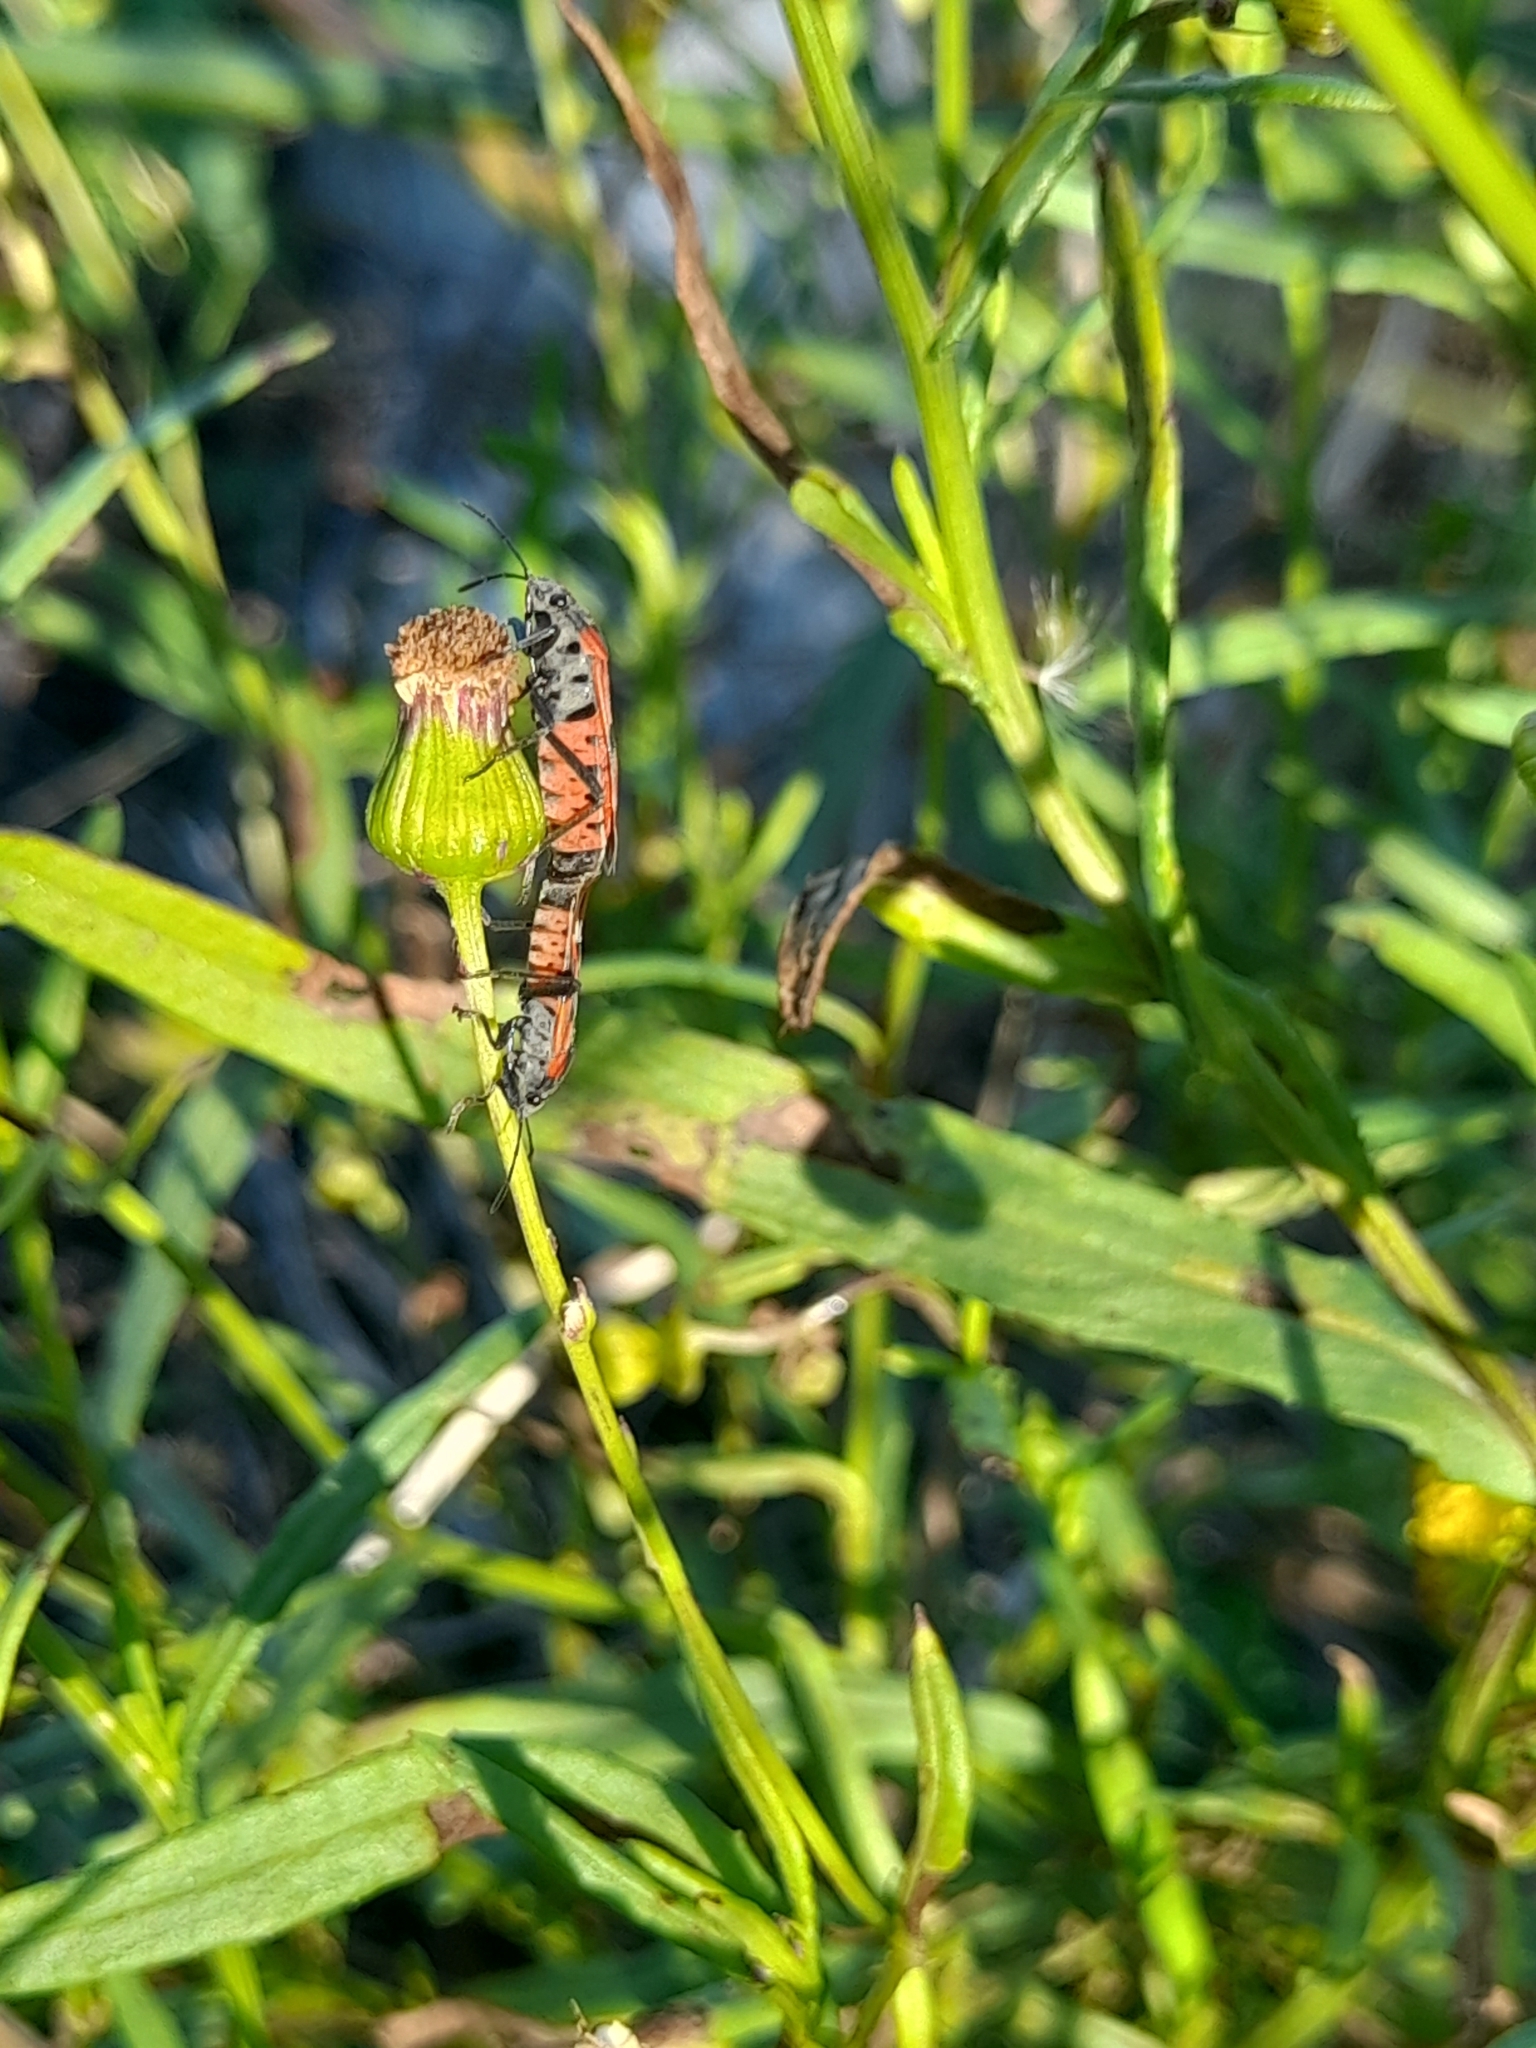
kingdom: Animalia
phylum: Arthropoda
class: Insecta
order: Hemiptera
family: Lygaeidae
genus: Lygaeus
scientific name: Lygaeus alboornatus
